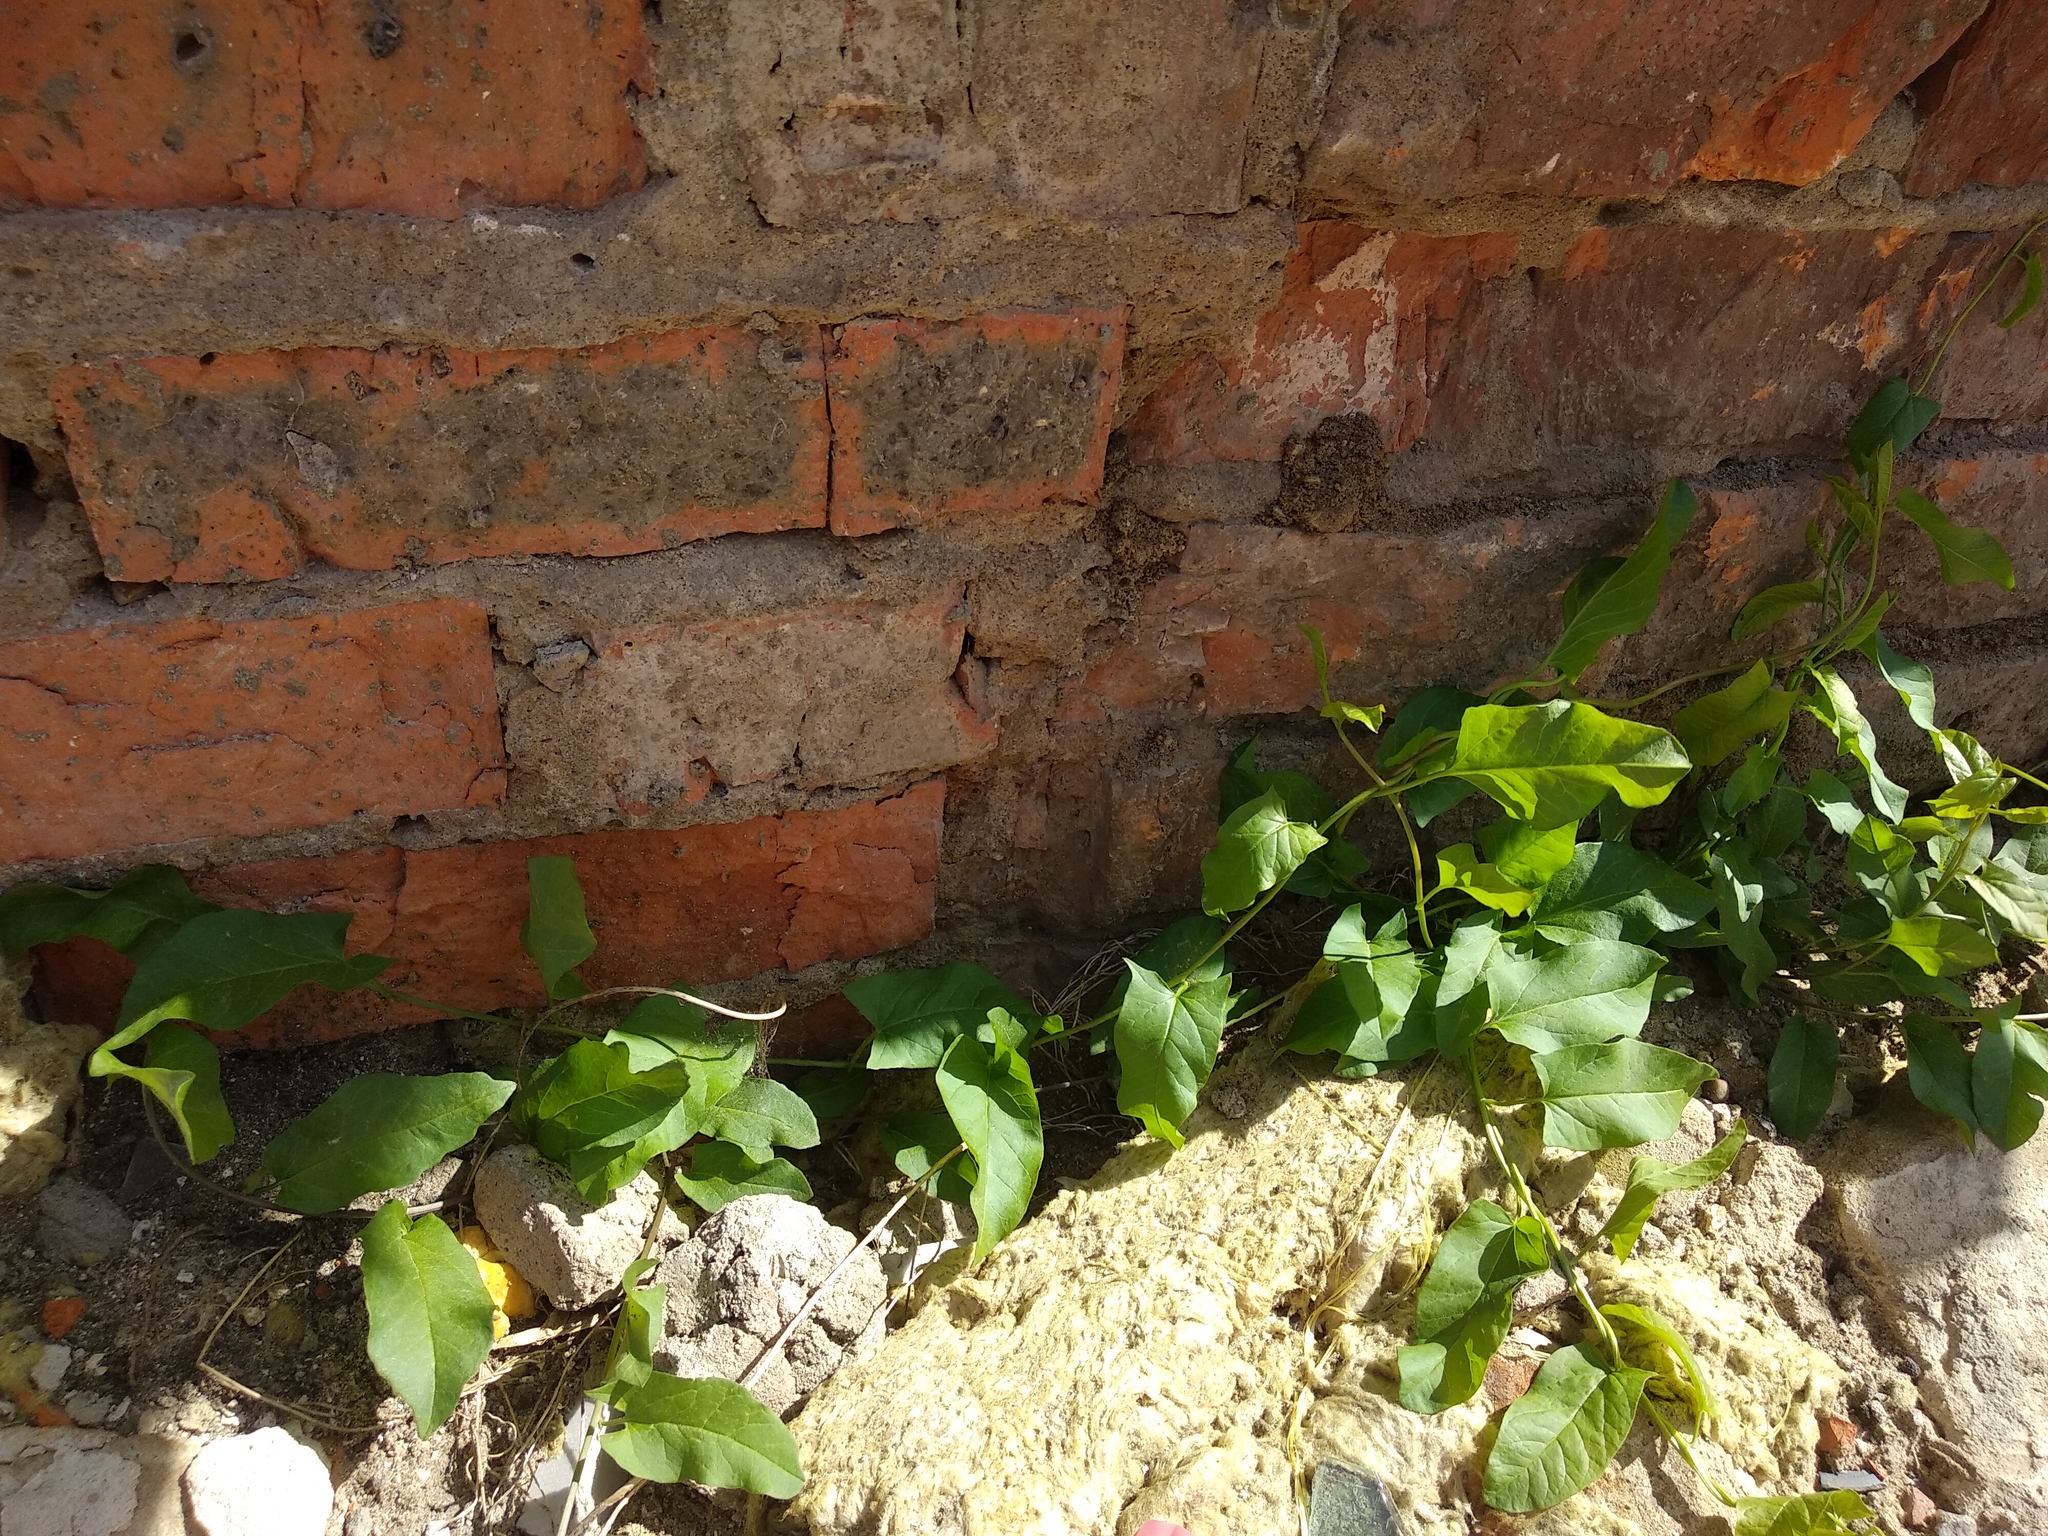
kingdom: Plantae
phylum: Tracheophyta
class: Magnoliopsida
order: Solanales
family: Convolvulaceae
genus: Convolvulus
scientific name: Convolvulus arvensis
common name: Field bindweed
